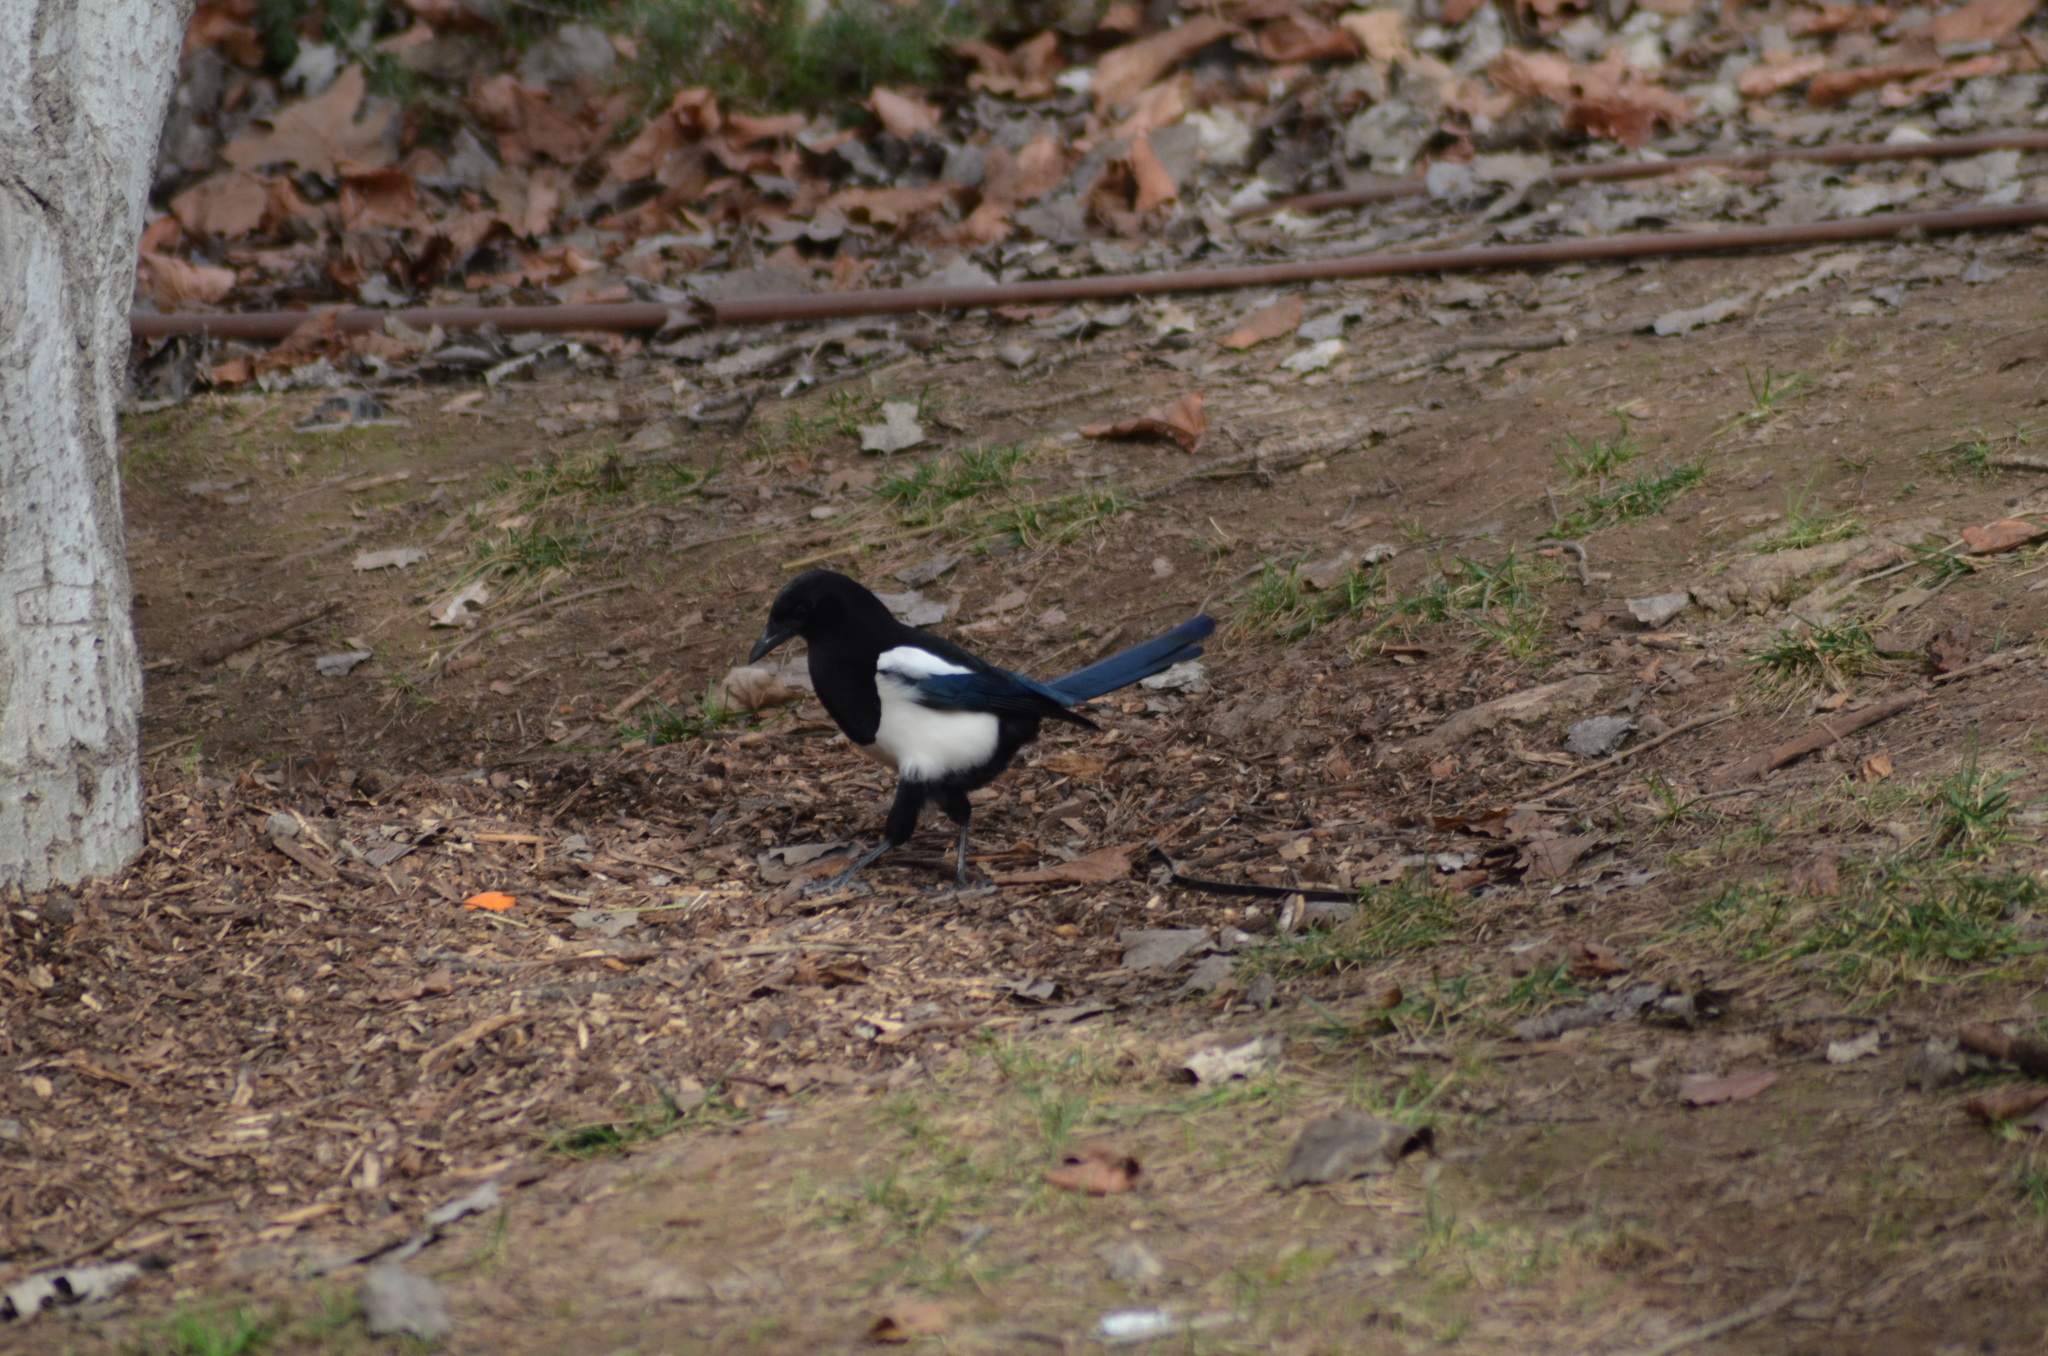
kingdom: Animalia
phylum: Chordata
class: Aves
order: Passeriformes
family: Corvidae
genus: Pica
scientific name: Pica pica
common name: Eurasian magpie
